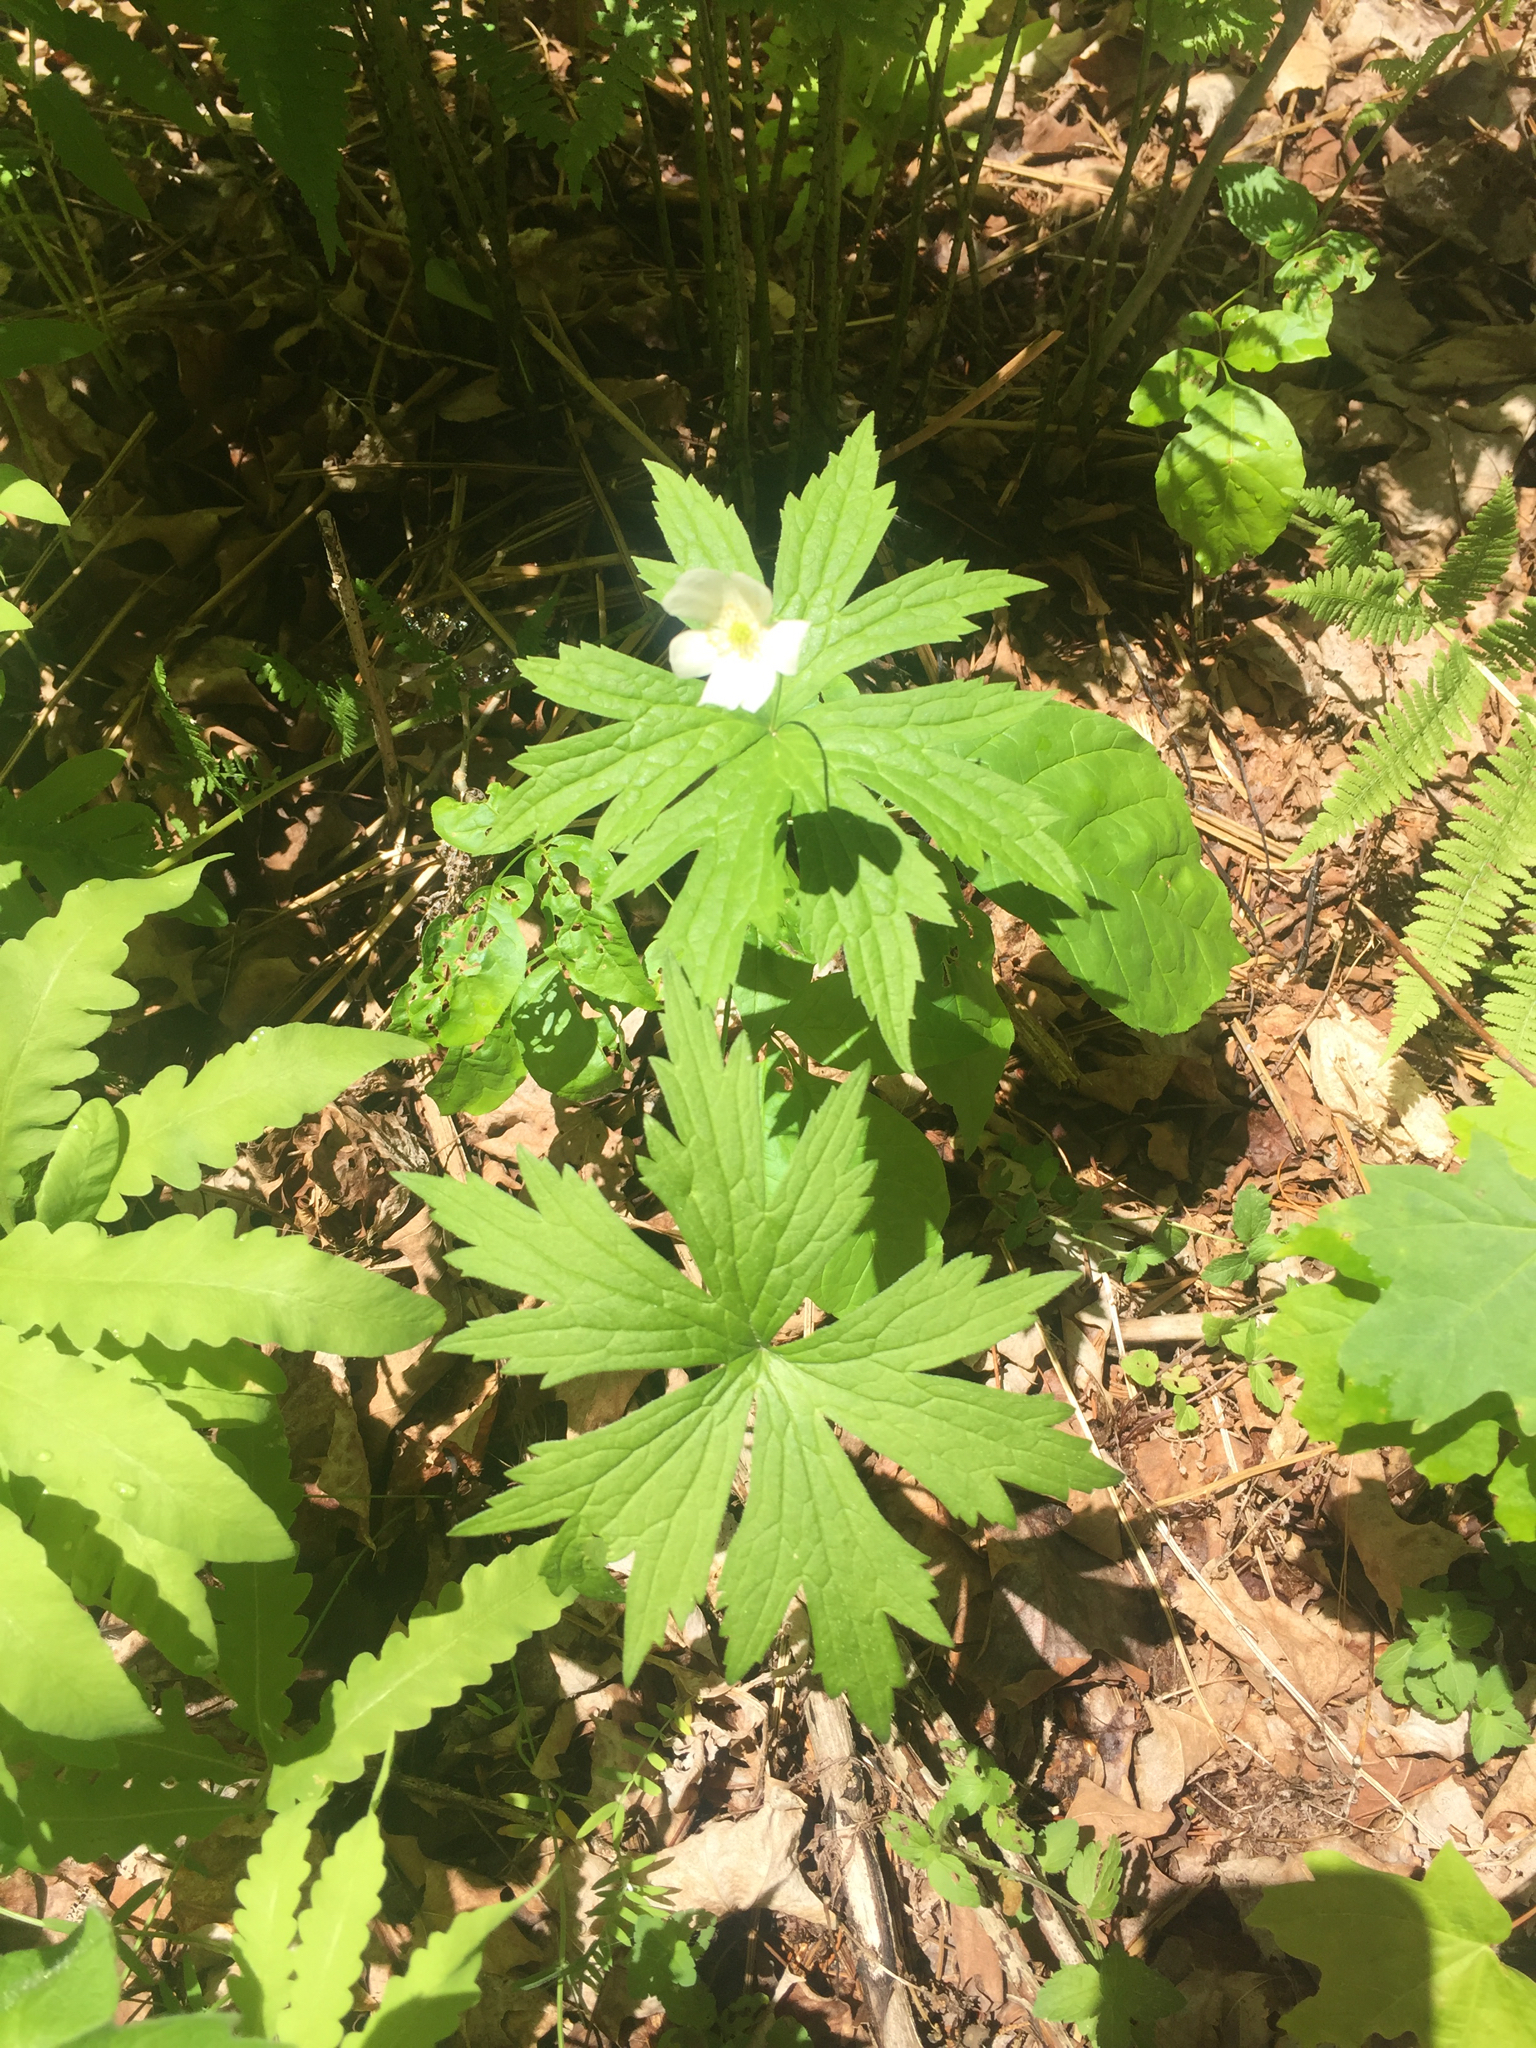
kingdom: Plantae
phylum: Tracheophyta
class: Magnoliopsida
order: Ranunculales
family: Ranunculaceae
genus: Anemonastrum
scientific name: Anemonastrum canadense
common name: Canada anemone
